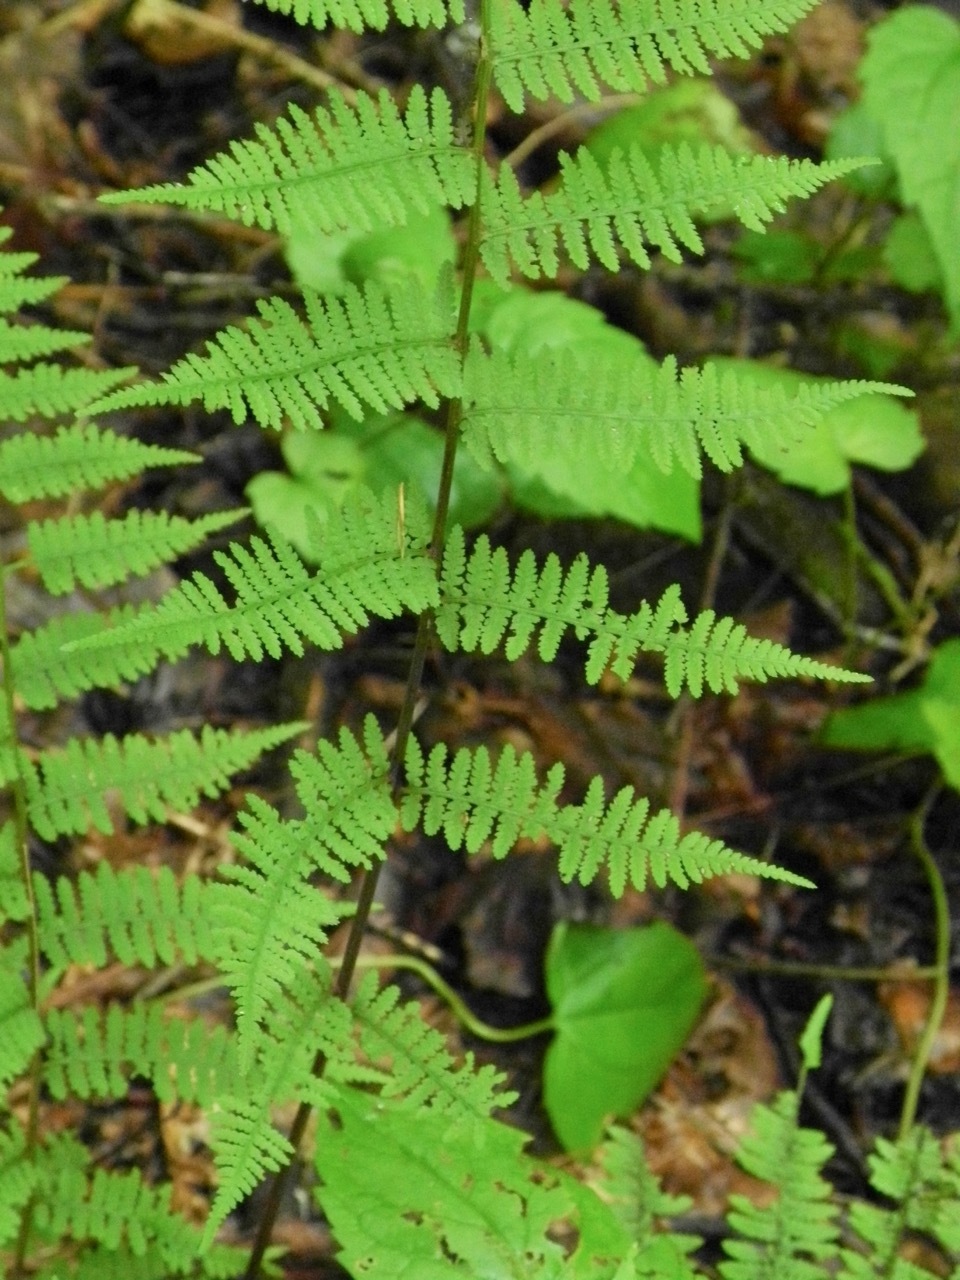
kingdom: Plantae
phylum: Tracheophyta
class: Polypodiopsida
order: Polypodiales
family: Athyriaceae
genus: Athyrium
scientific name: Athyrium asplenioides
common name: Southern lady fern
